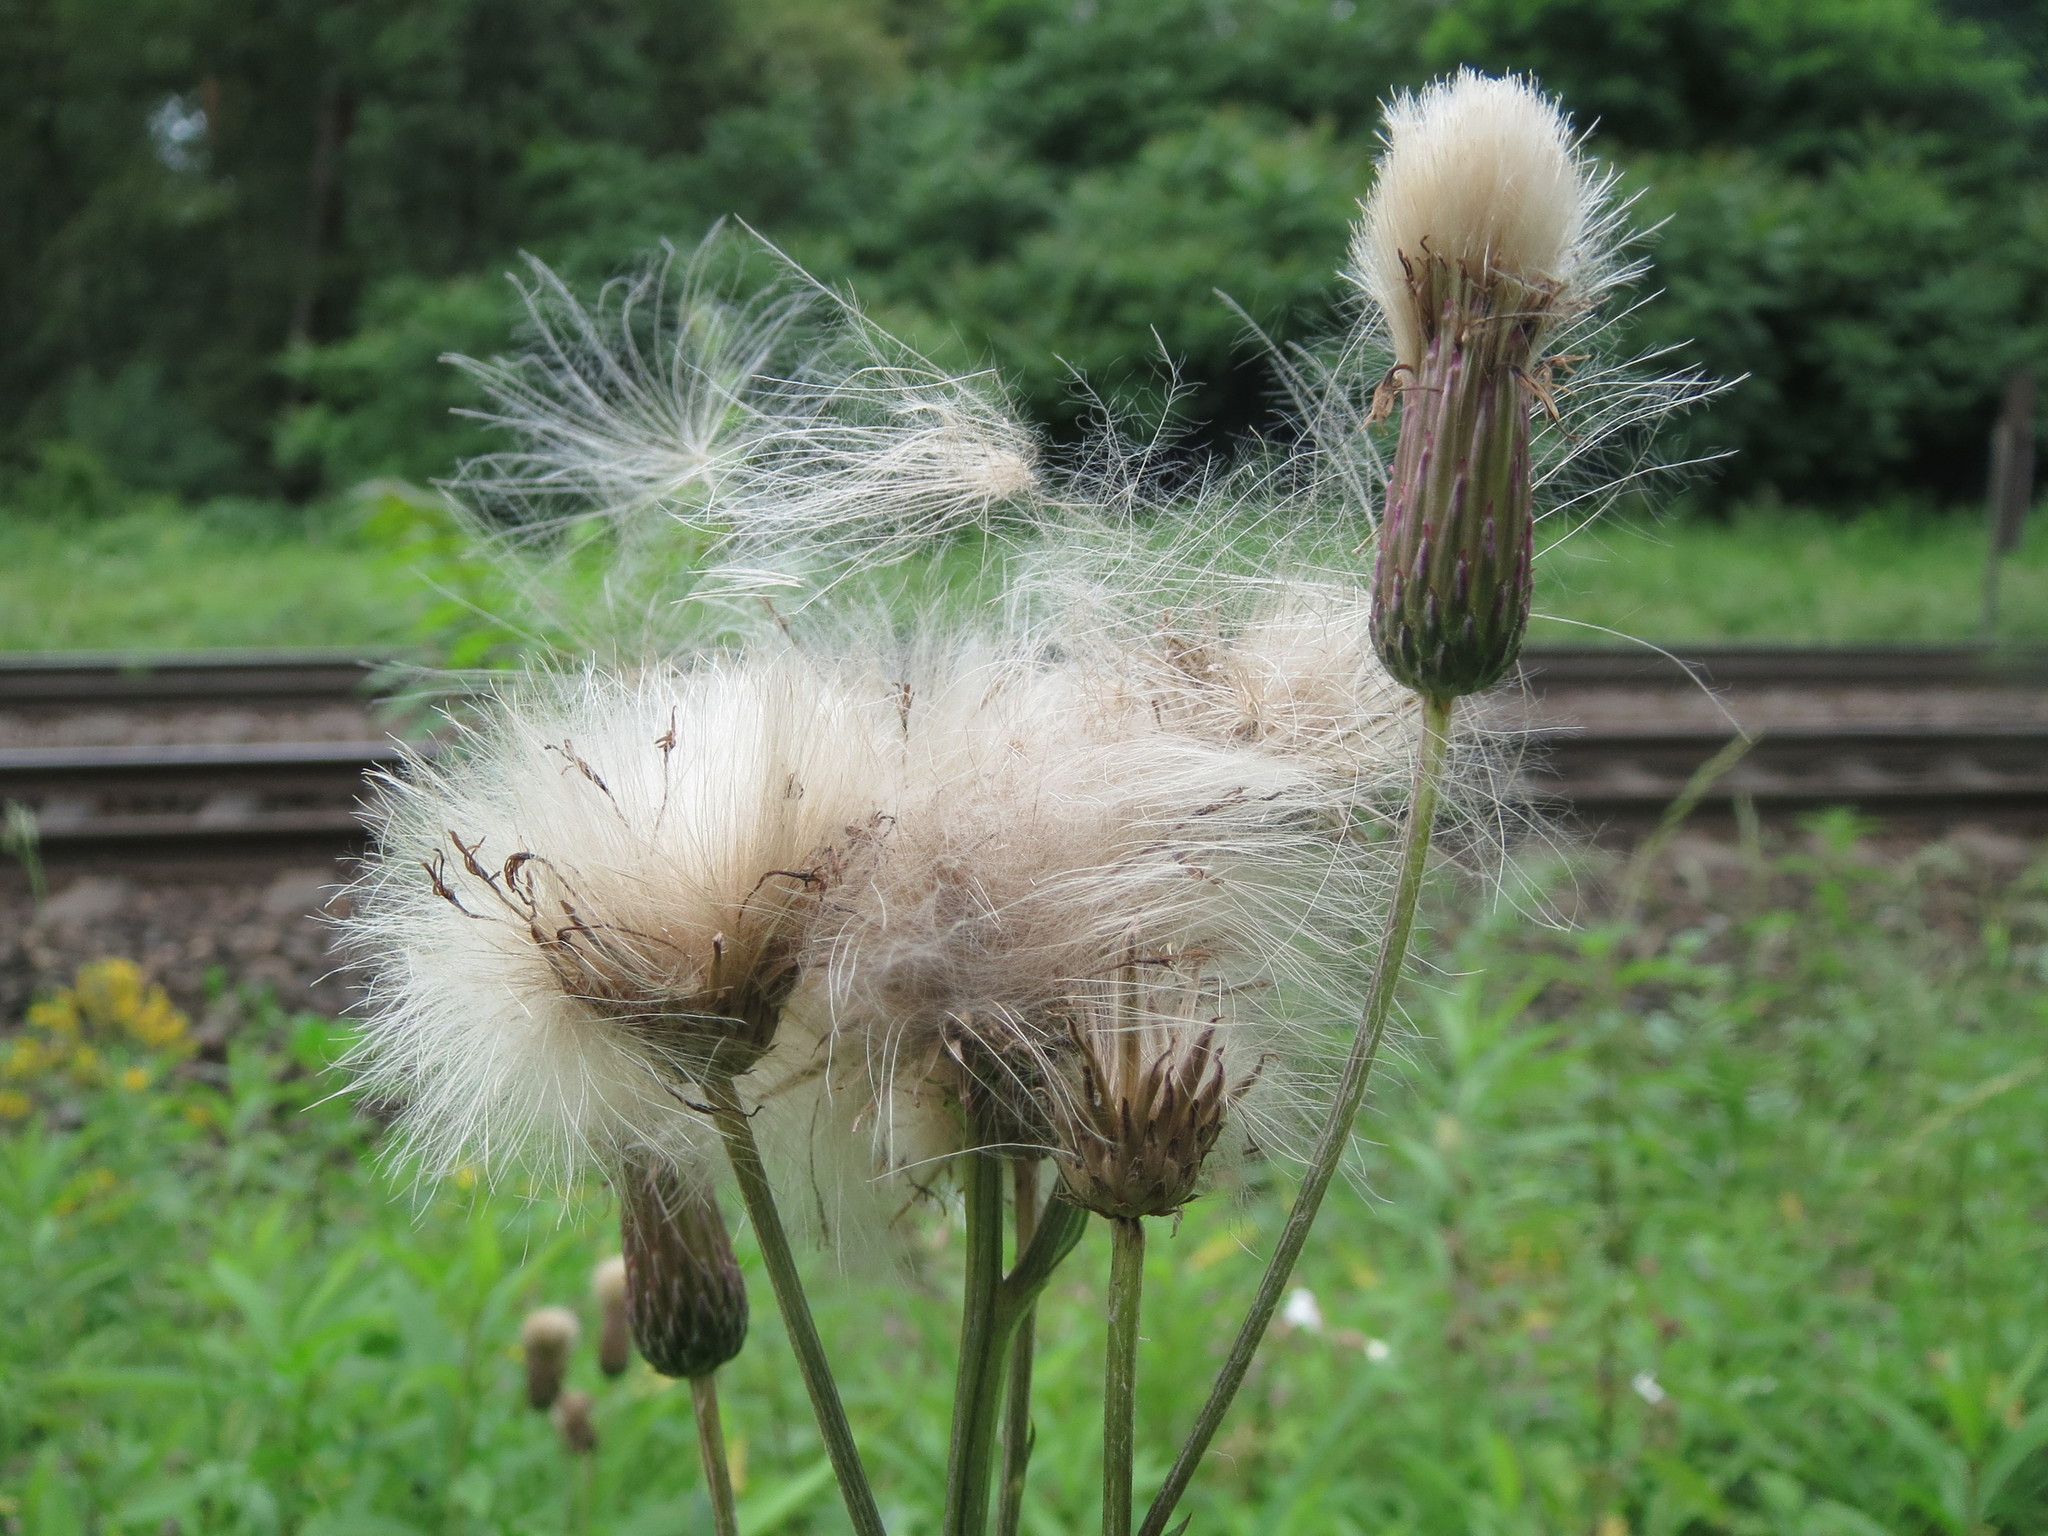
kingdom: Plantae
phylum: Tracheophyta
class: Magnoliopsida
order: Asterales
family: Asteraceae
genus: Cirsium
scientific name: Cirsium arvense
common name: Creeping thistle
